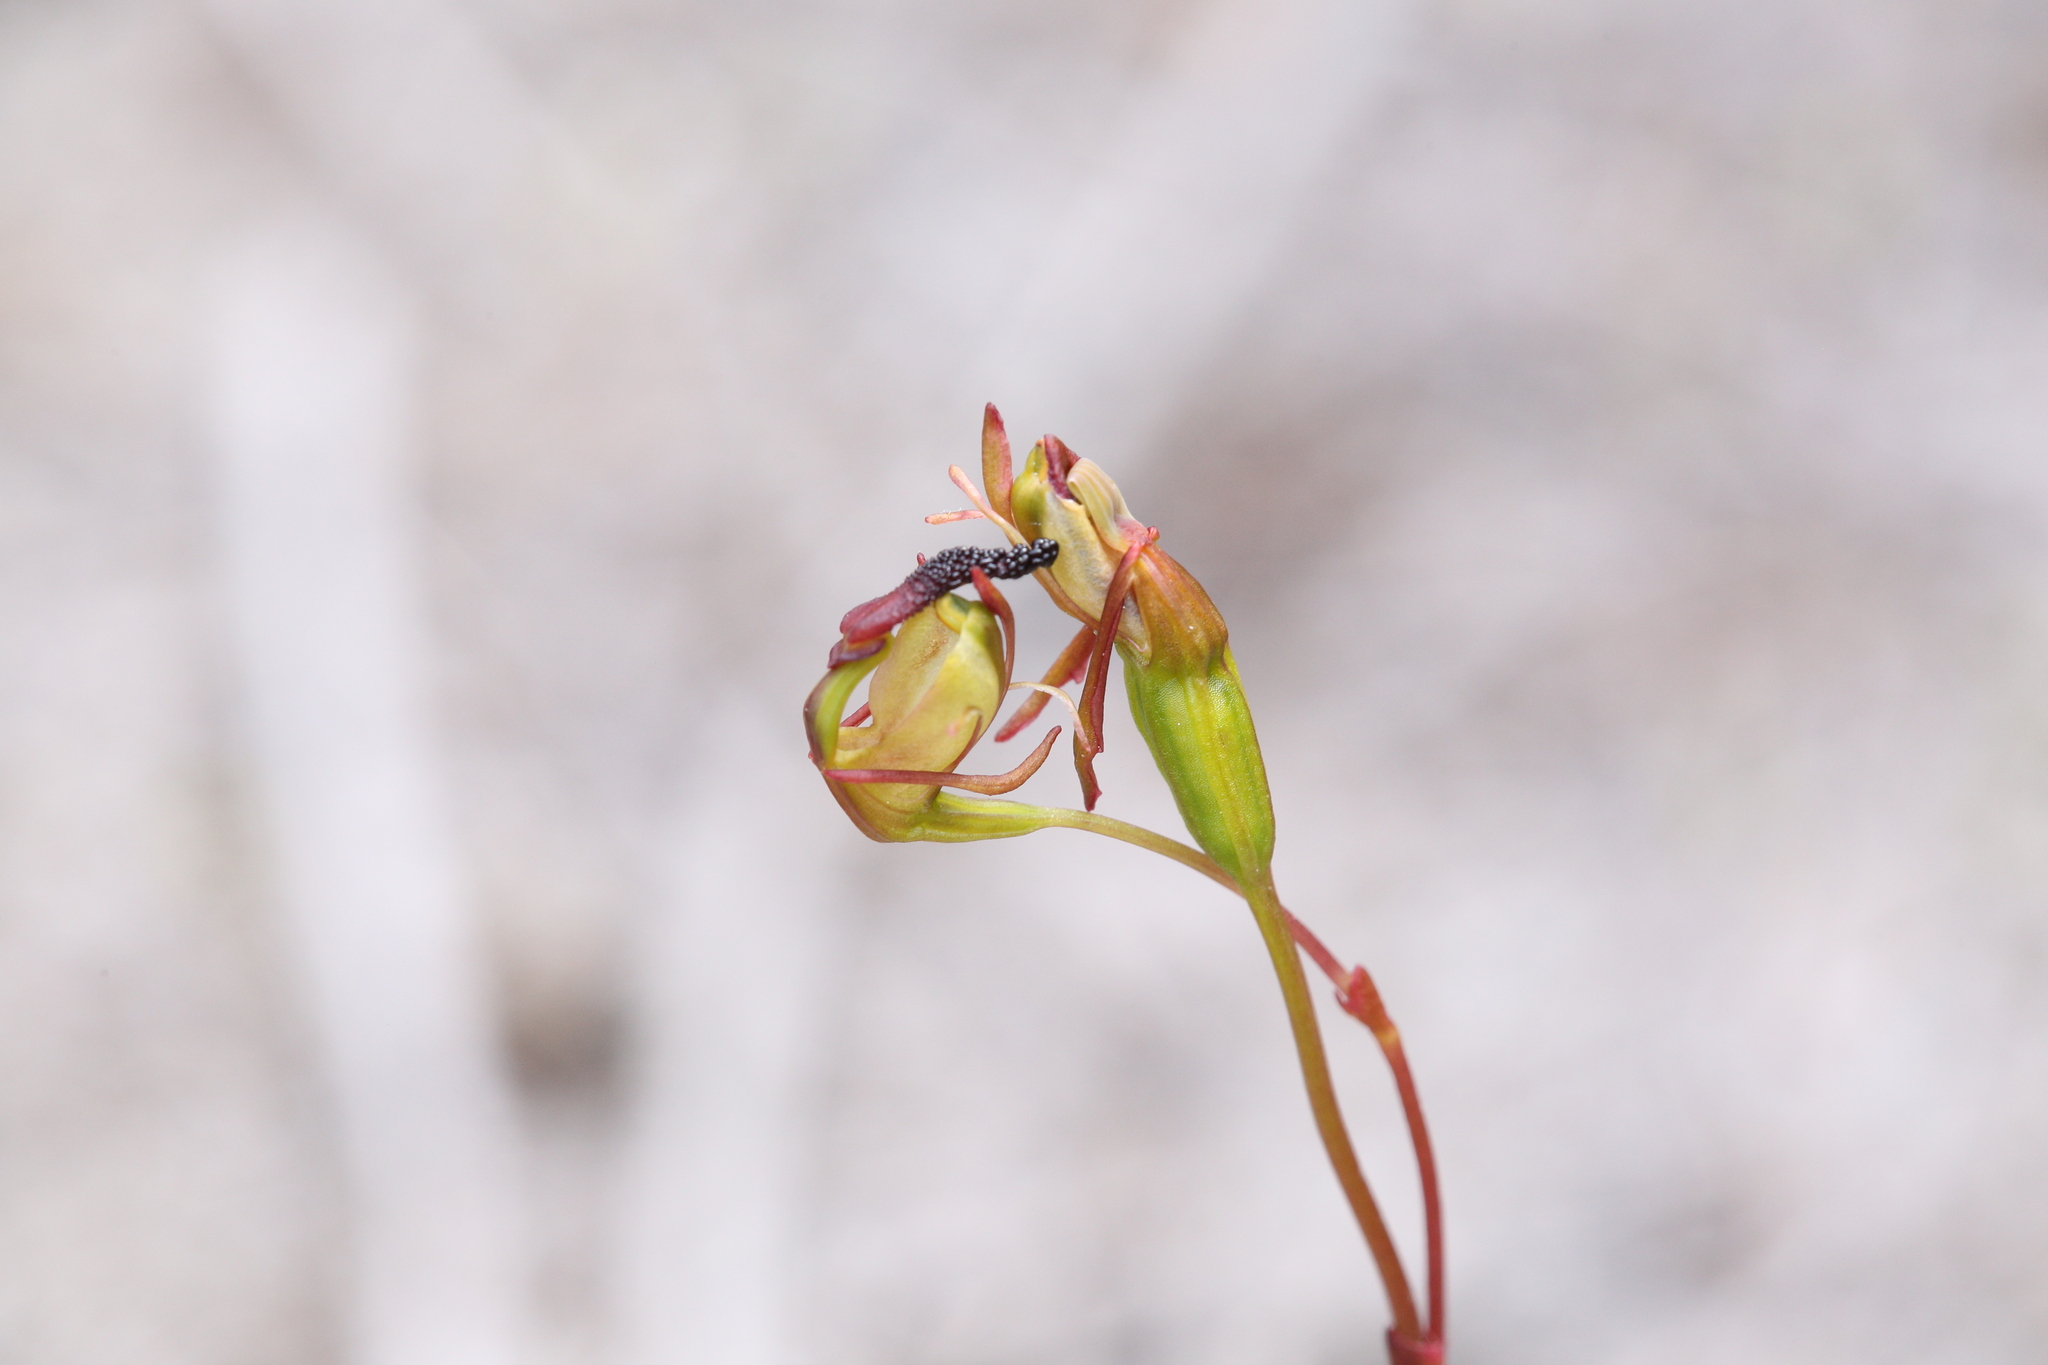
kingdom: Plantae
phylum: Tracheophyta
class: Liliopsida
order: Asparagales
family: Orchidaceae
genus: Caleana
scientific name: Caleana nigrita
